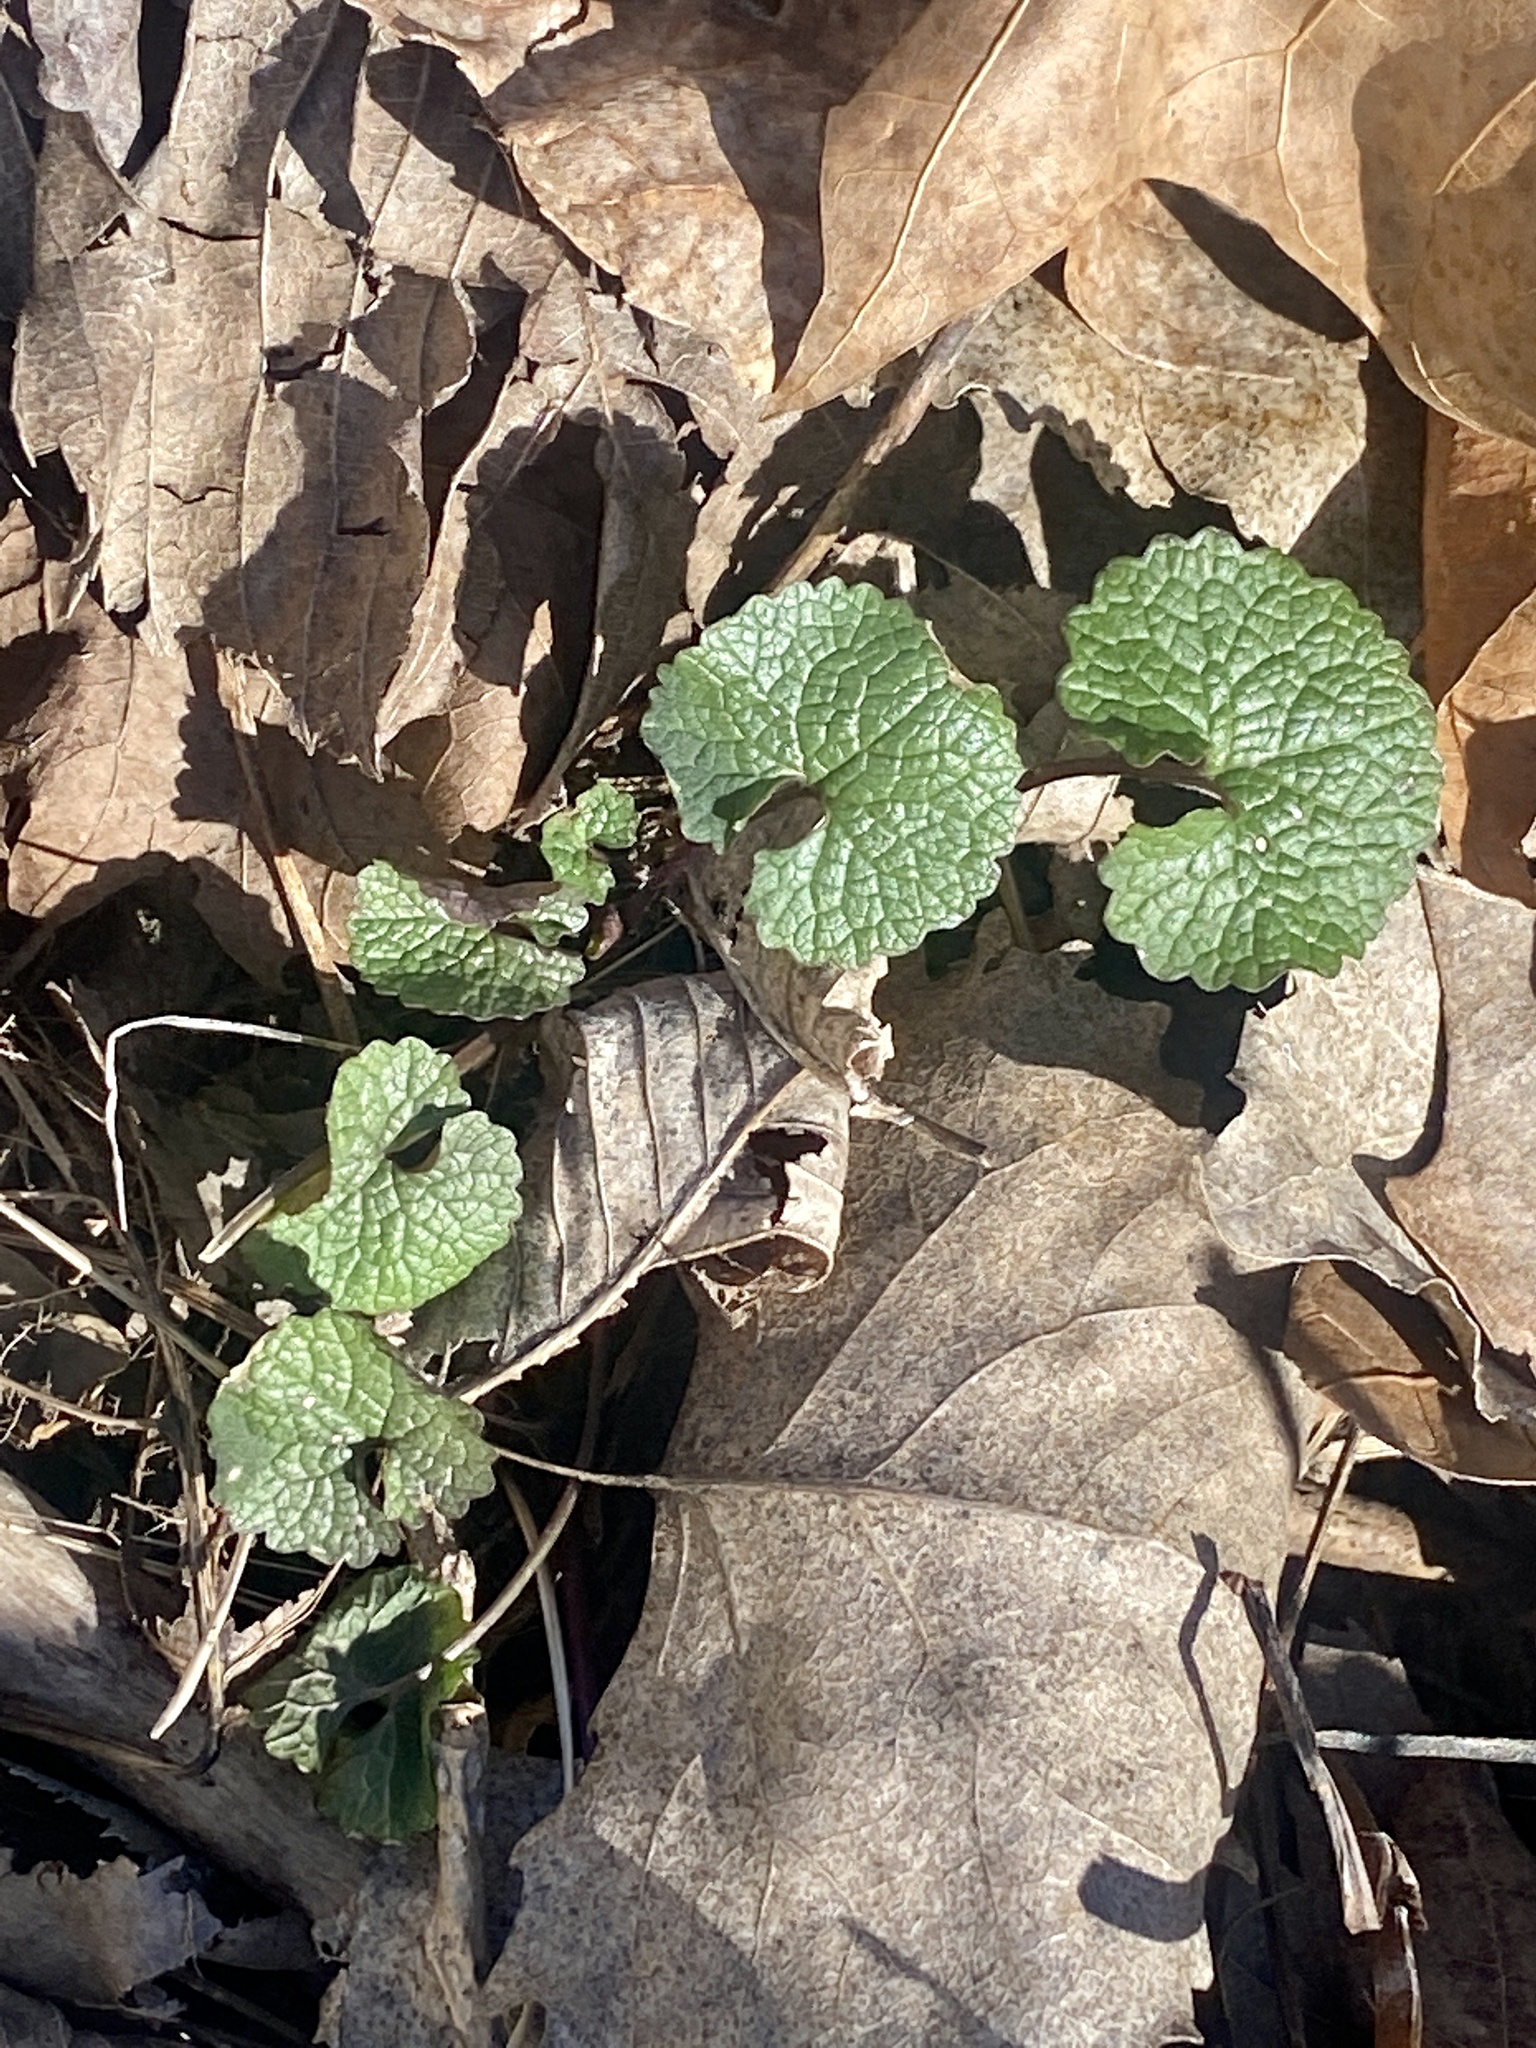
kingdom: Plantae
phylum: Tracheophyta
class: Magnoliopsida
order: Brassicales
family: Brassicaceae
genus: Alliaria
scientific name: Alliaria petiolata
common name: Garlic mustard
